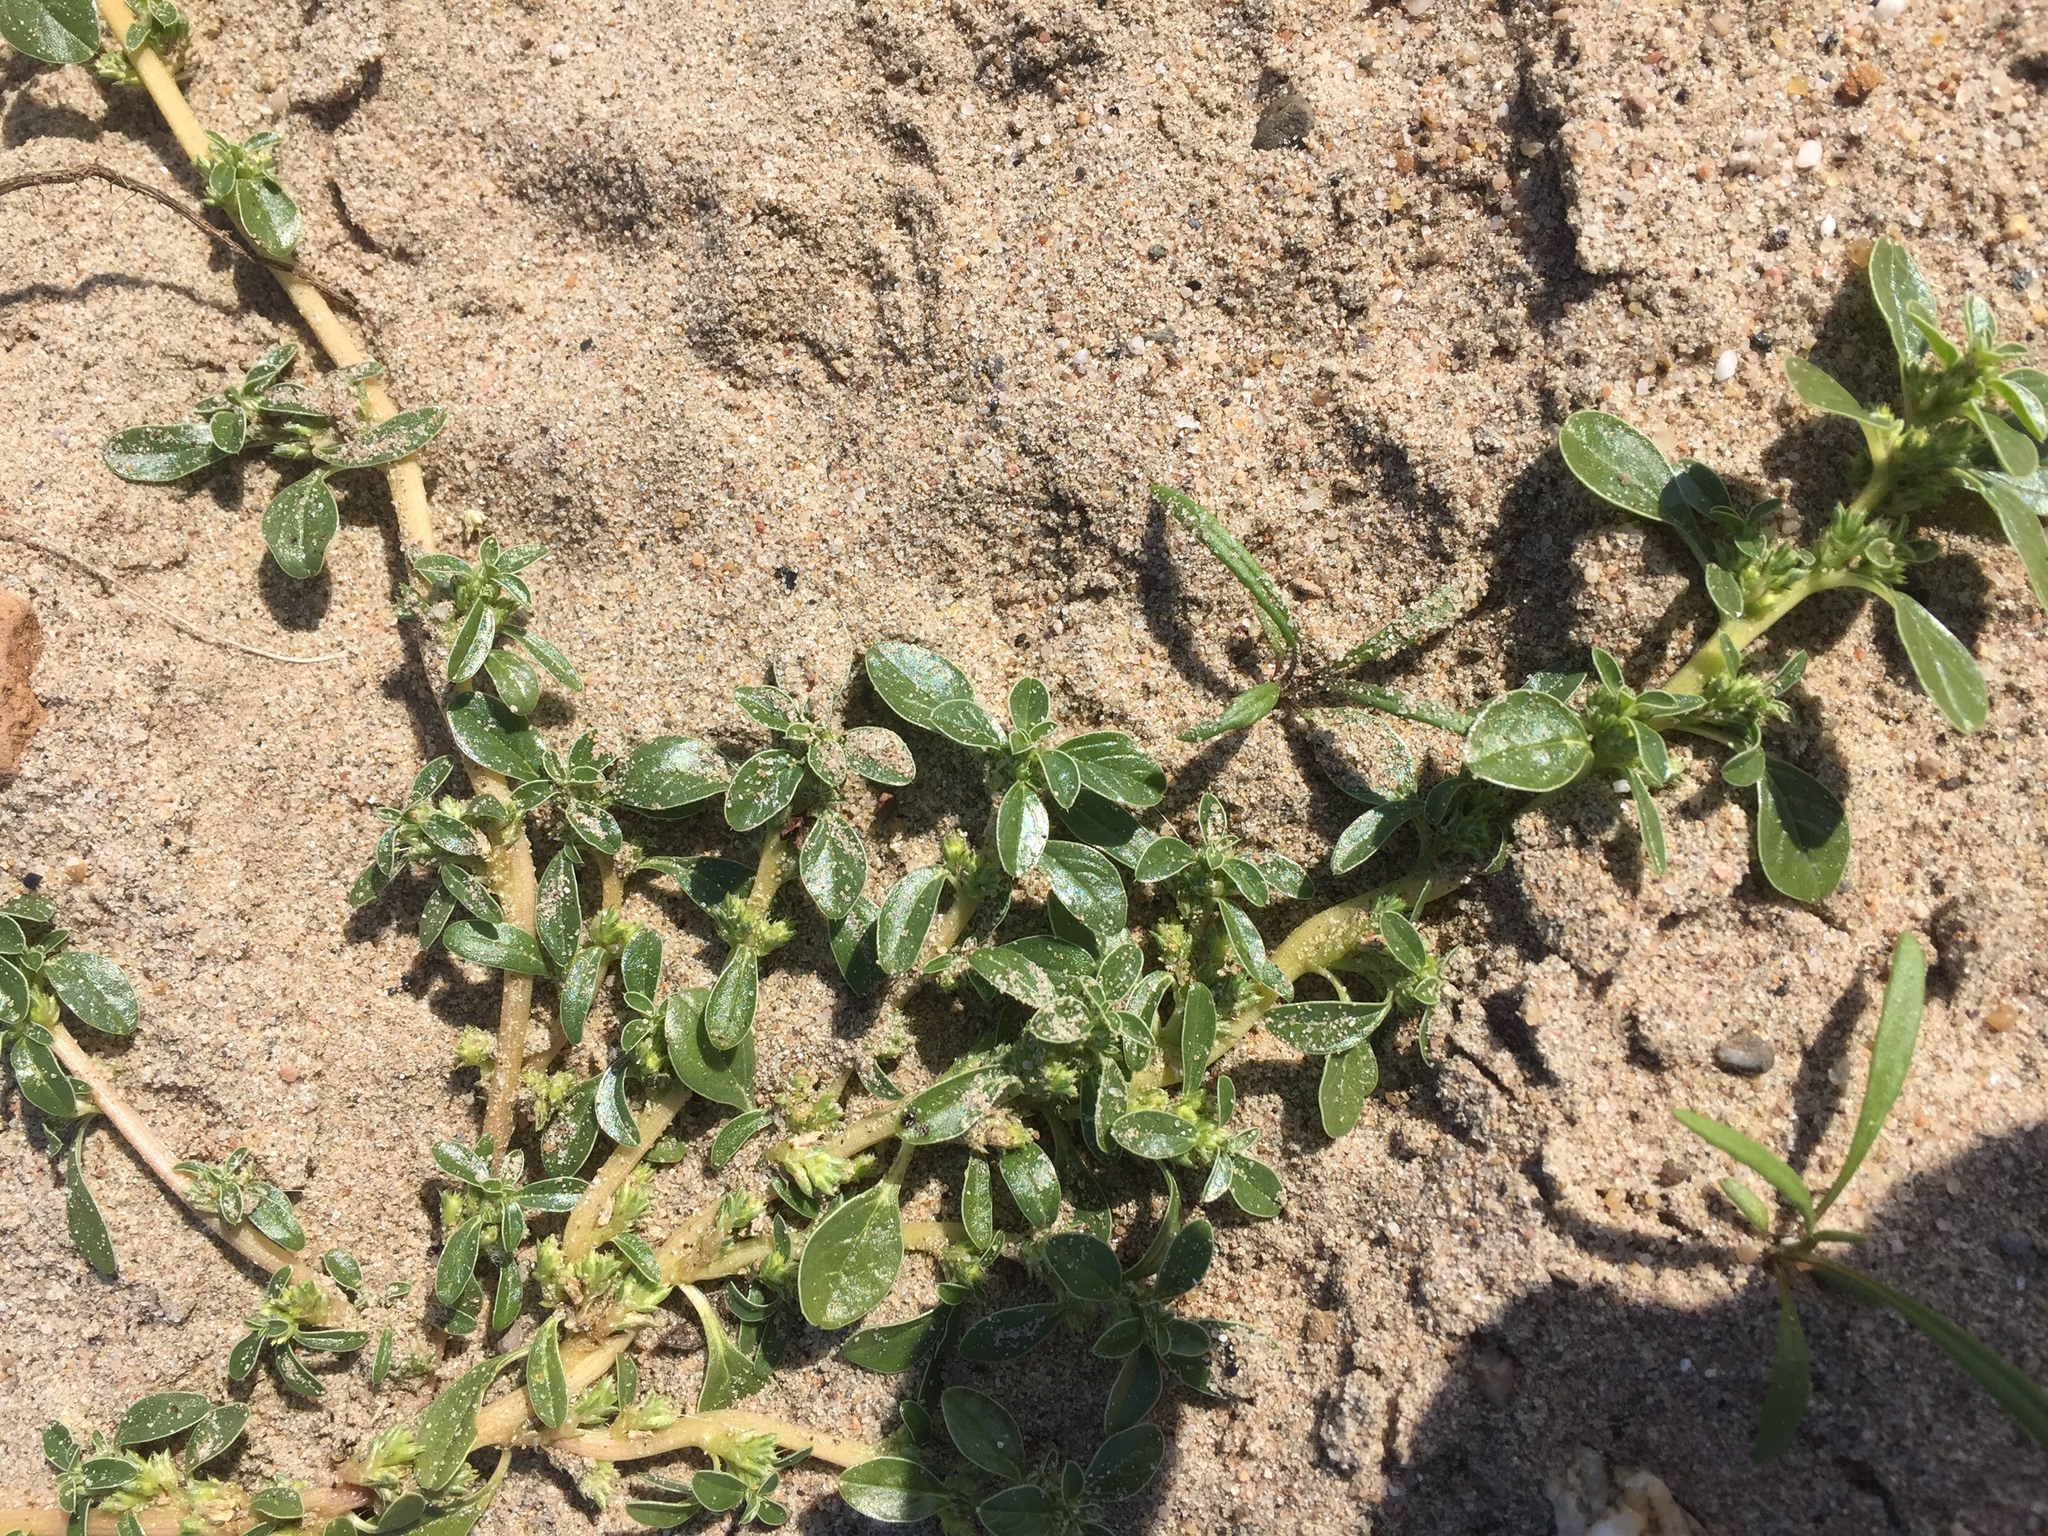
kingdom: Plantae
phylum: Tracheophyta
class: Magnoliopsida
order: Caryophyllales
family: Amaranthaceae
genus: Amaranthus
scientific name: Amaranthus blitoides
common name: Prostrate pigweed
